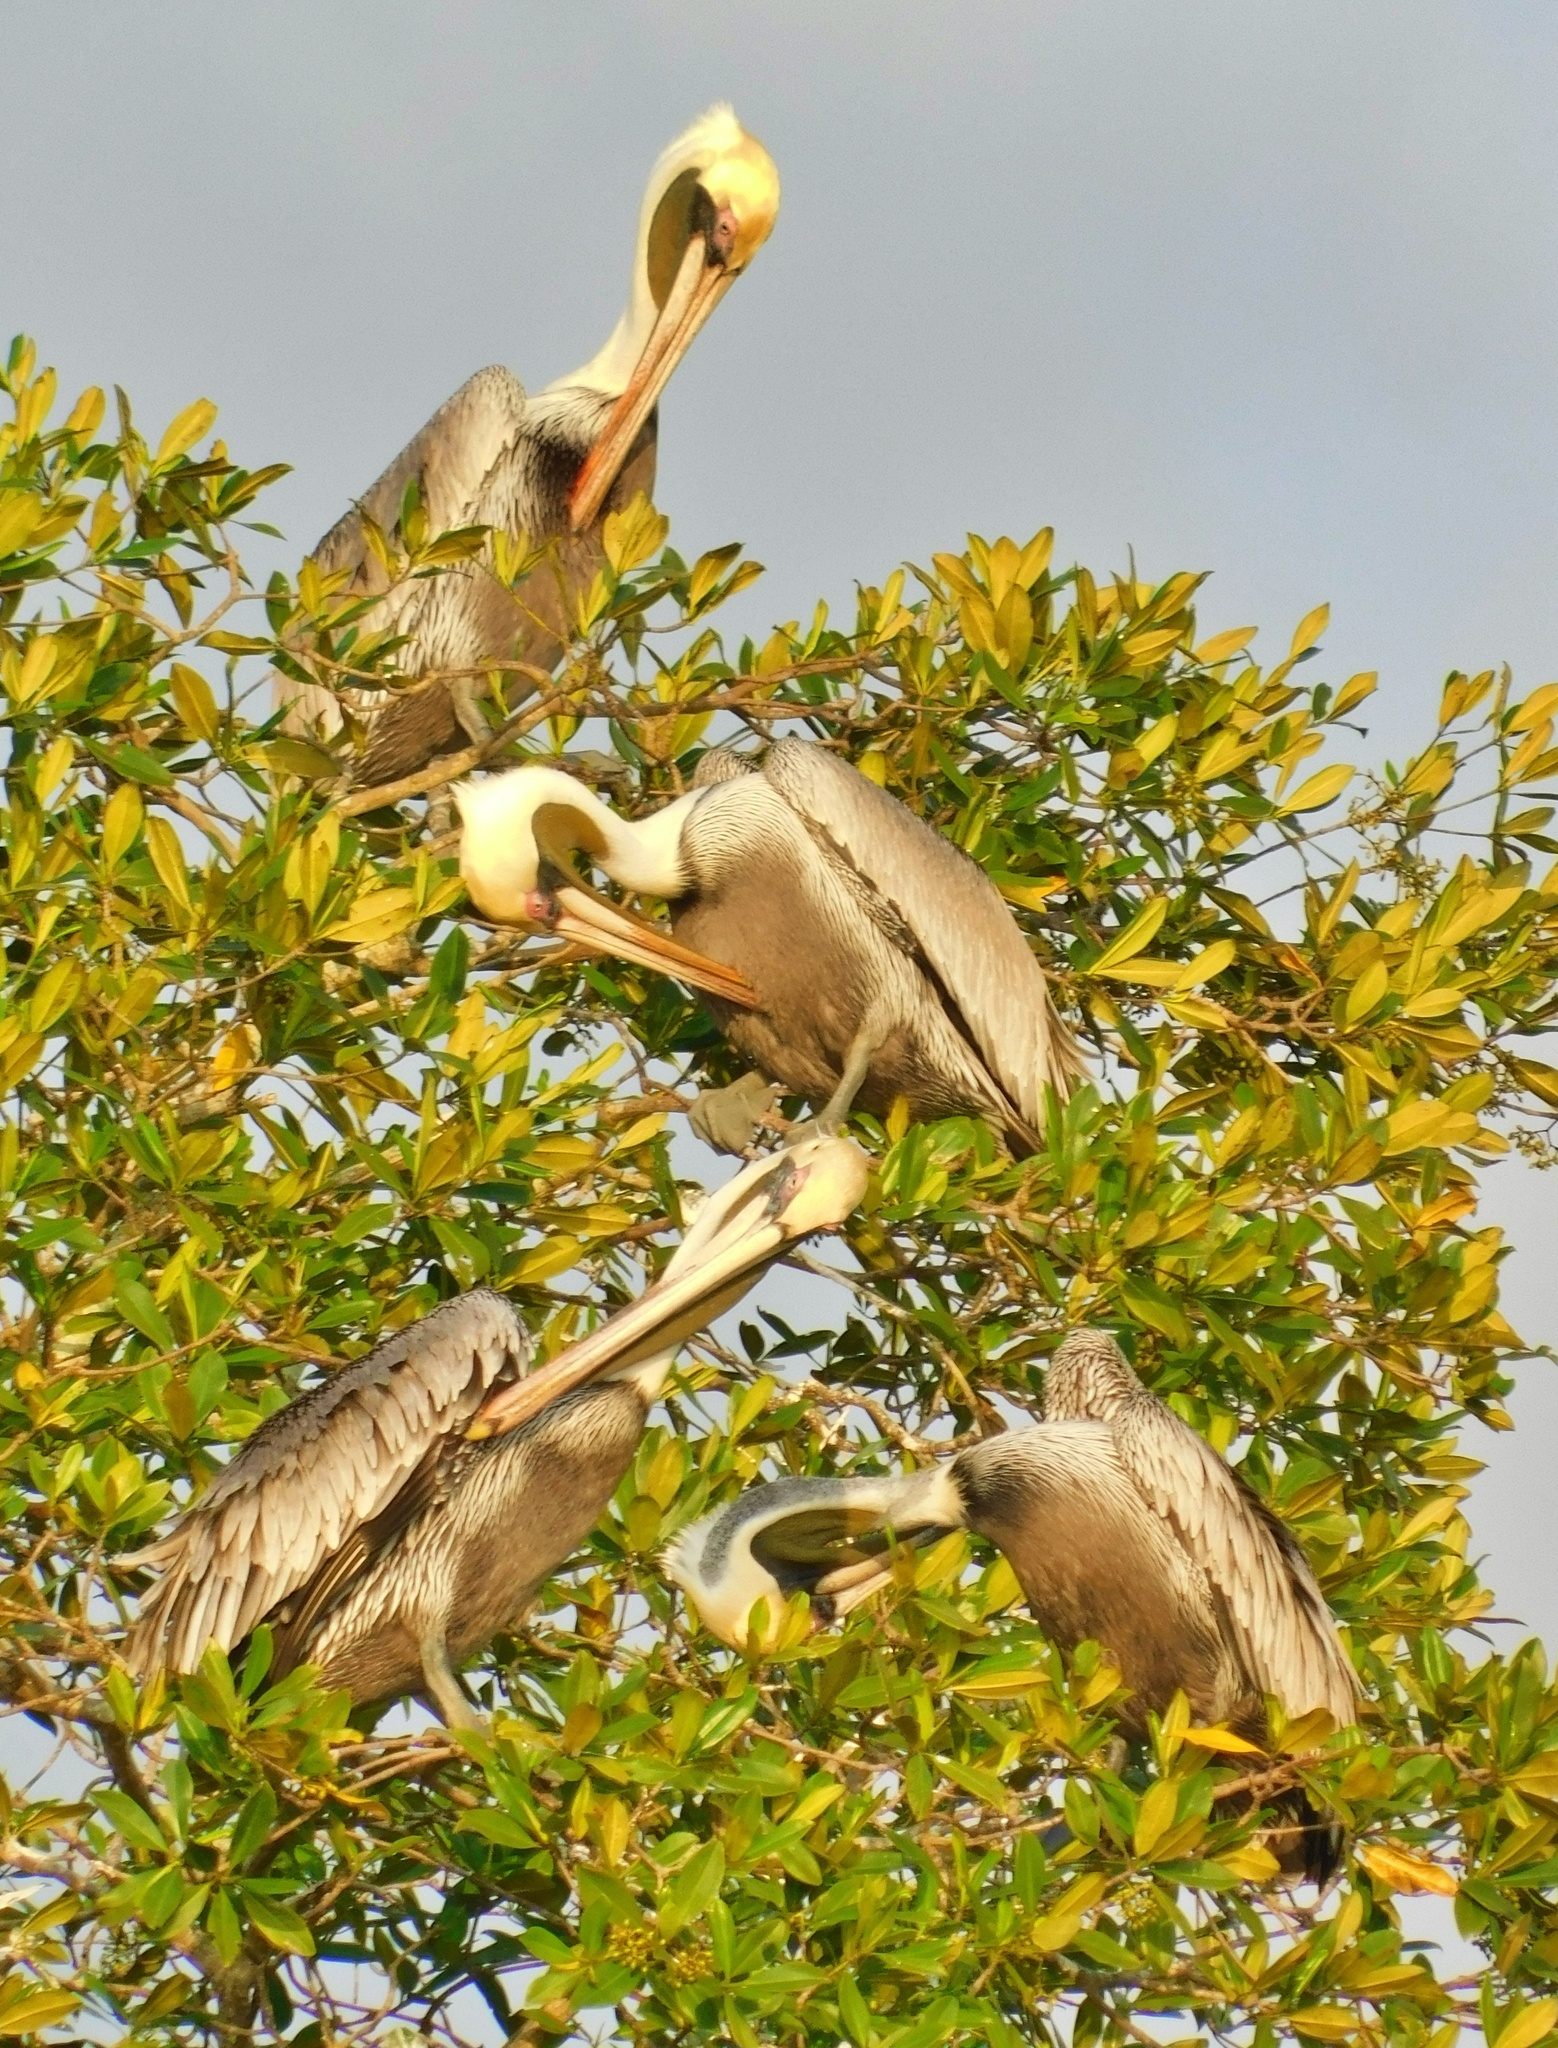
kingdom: Animalia
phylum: Chordata
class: Aves
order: Pelecaniformes
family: Pelecanidae
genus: Pelecanus
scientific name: Pelecanus occidentalis
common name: Brown pelican
